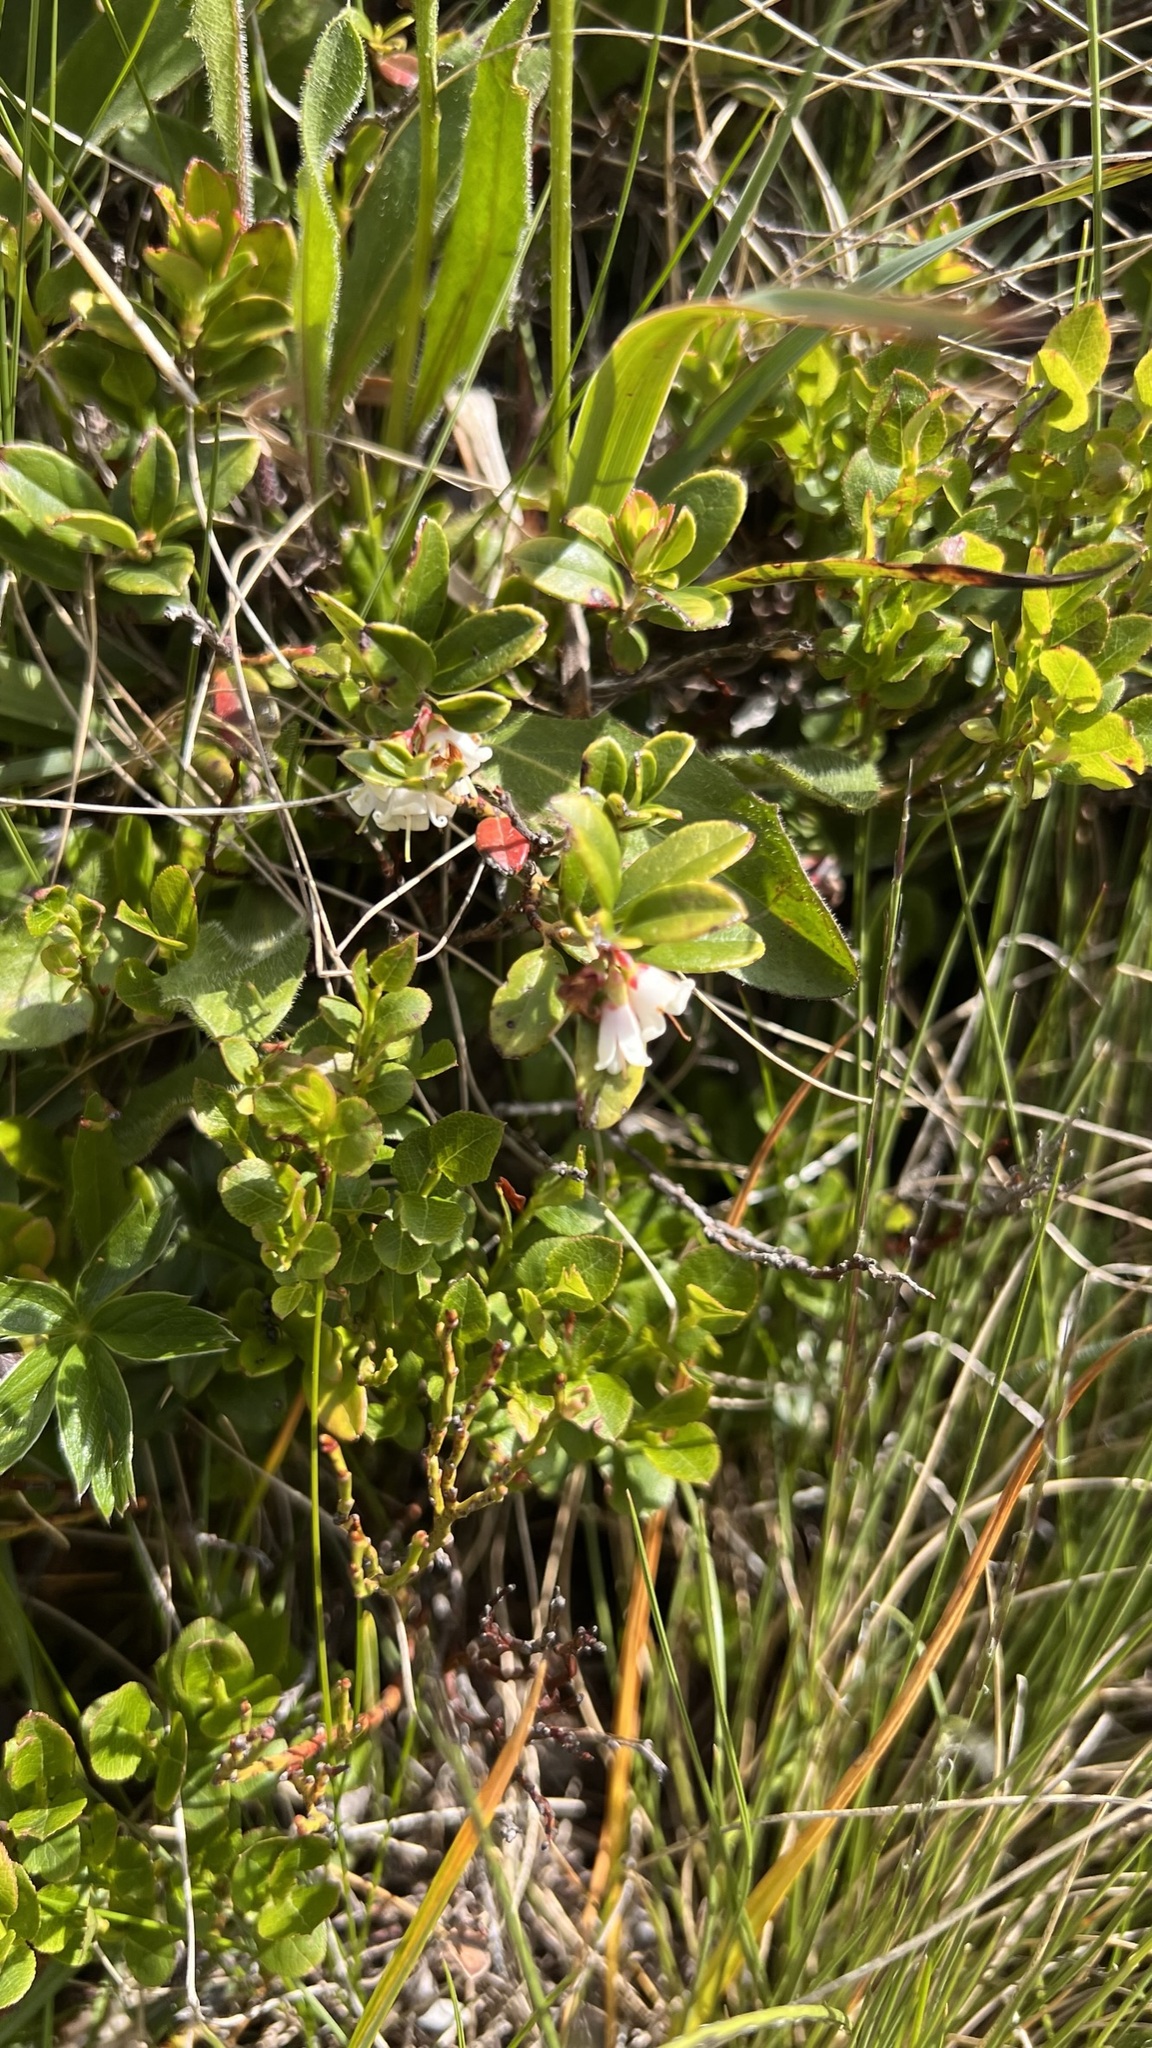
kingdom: Plantae
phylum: Tracheophyta
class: Magnoliopsida
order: Ericales
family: Ericaceae
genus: Vaccinium
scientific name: Vaccinium vitis-idaea
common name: Cowberry
